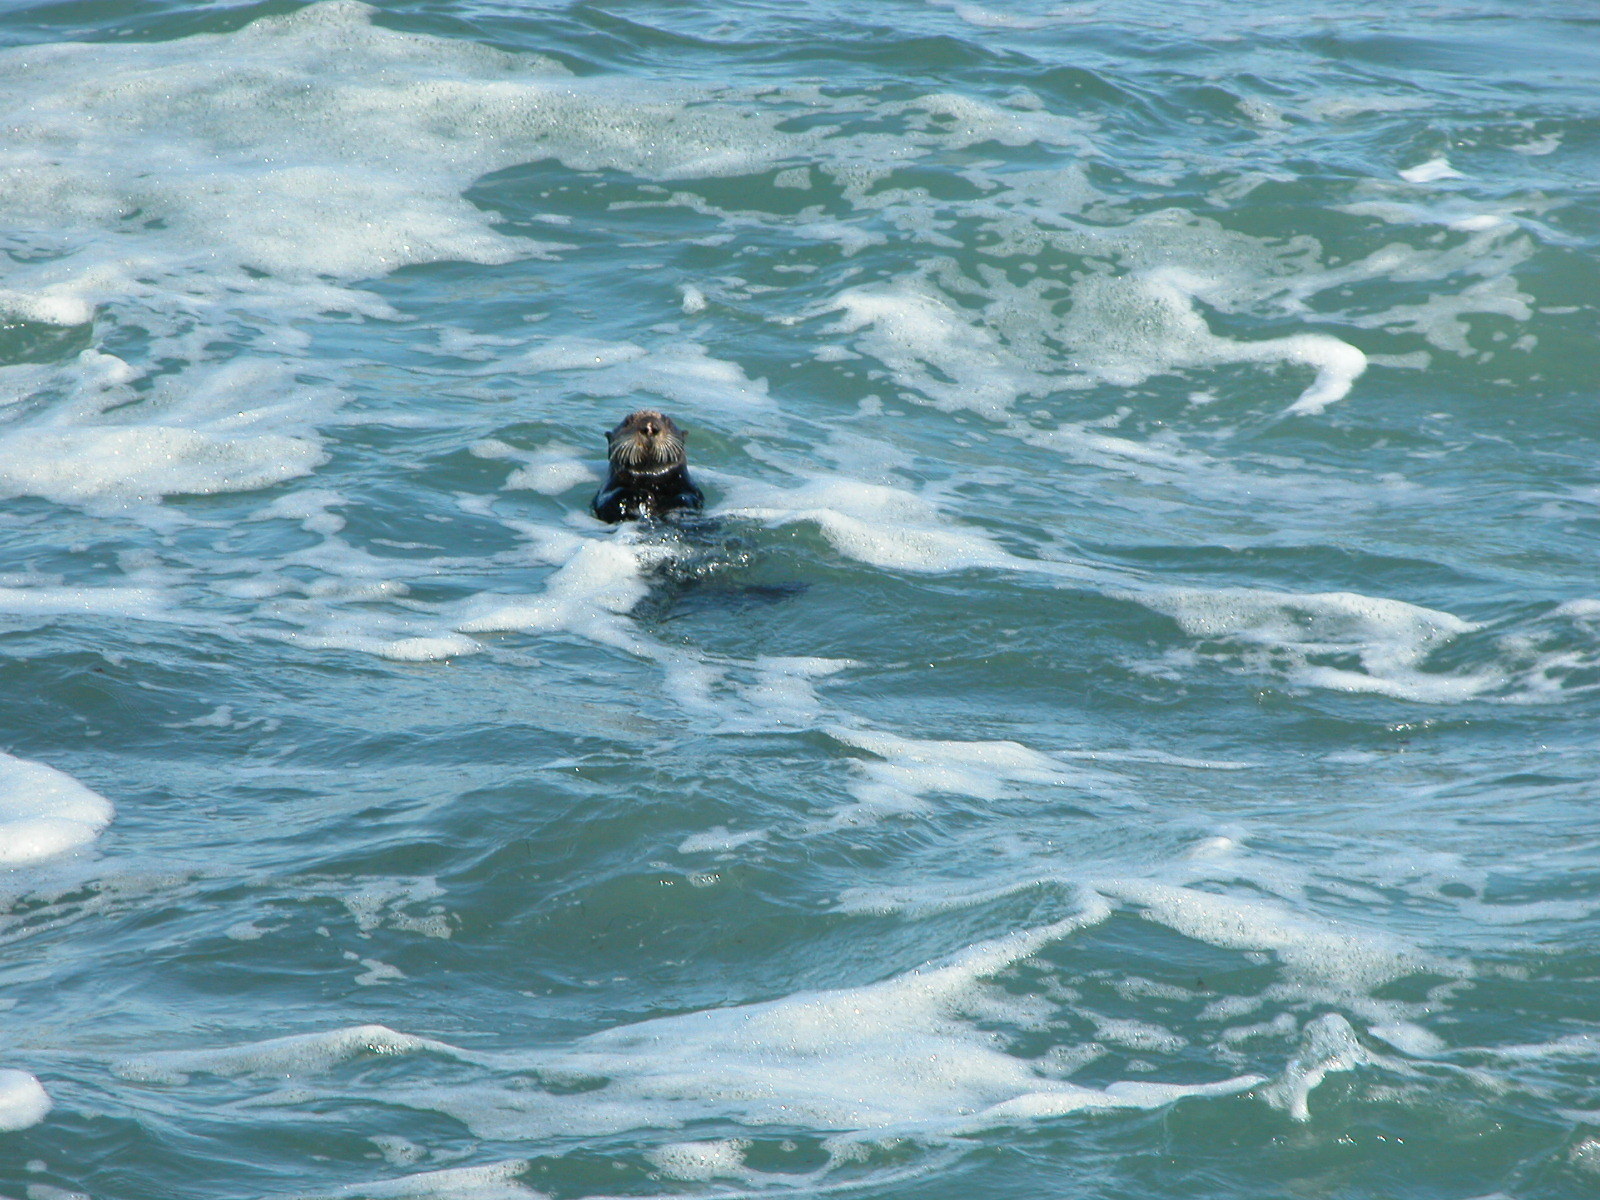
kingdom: Animalia
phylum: Chordata
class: Mammalia
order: Carnivora
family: Mustelidae
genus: Enhydra
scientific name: Enhydra lutris
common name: Sea otter
